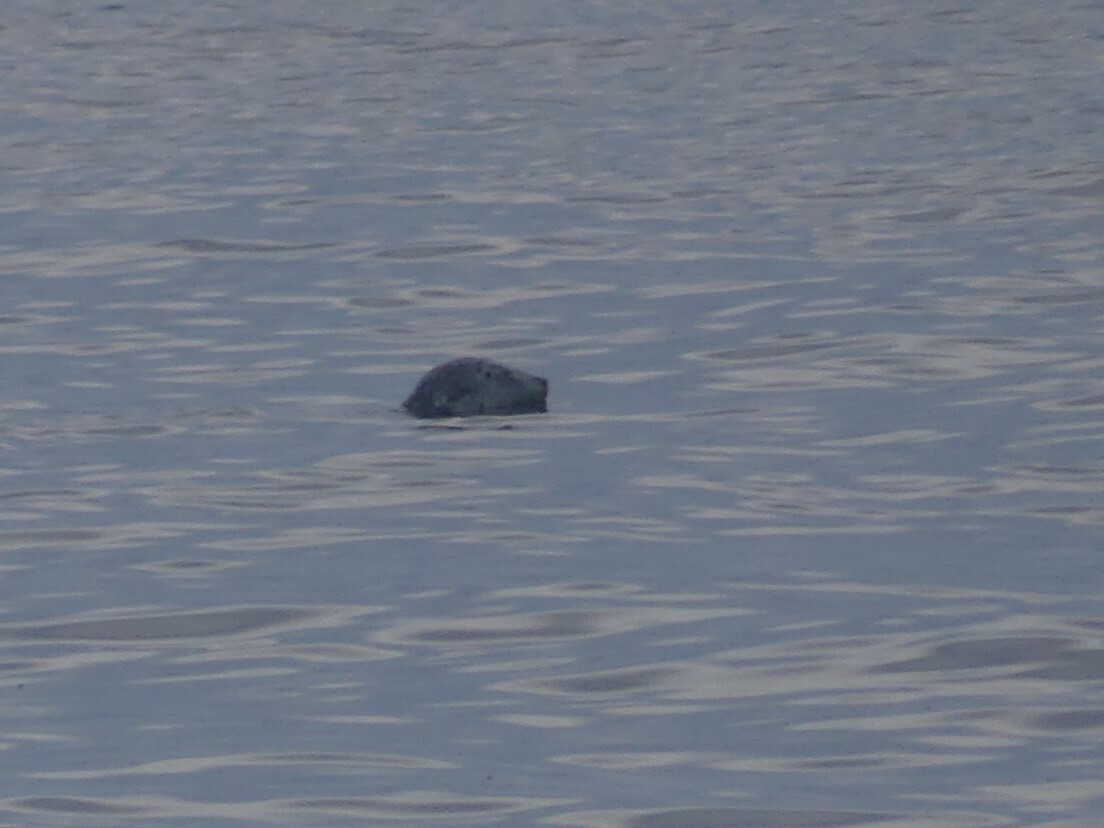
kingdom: Animalia
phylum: Chordata
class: Mammalia
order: Carnivora
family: Phocidae
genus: Phoca
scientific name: Phoca vitulina
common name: Harbor seal
